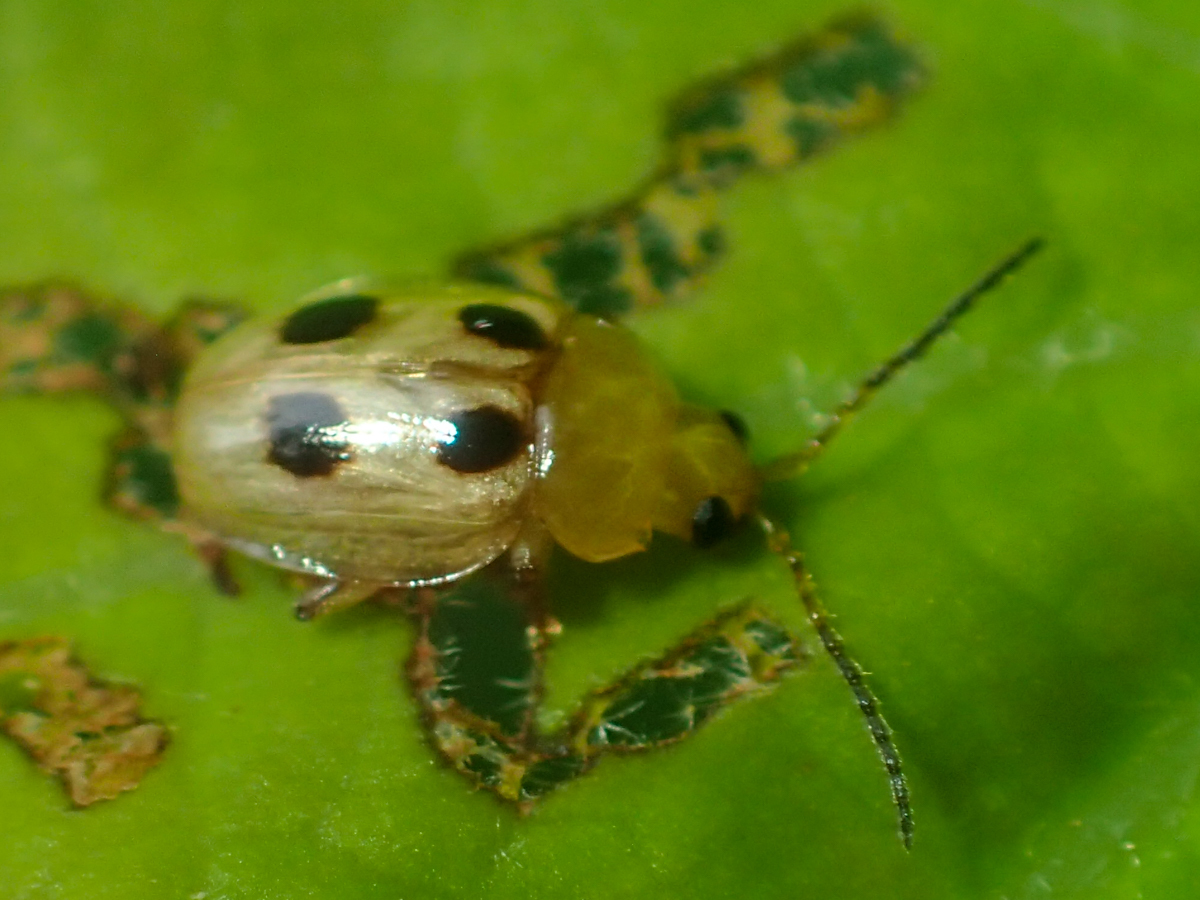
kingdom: Animalia
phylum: Arthropoda
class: Insecta
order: Coleoptera
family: Chrysomelidae
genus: Erystus
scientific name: Erystus
